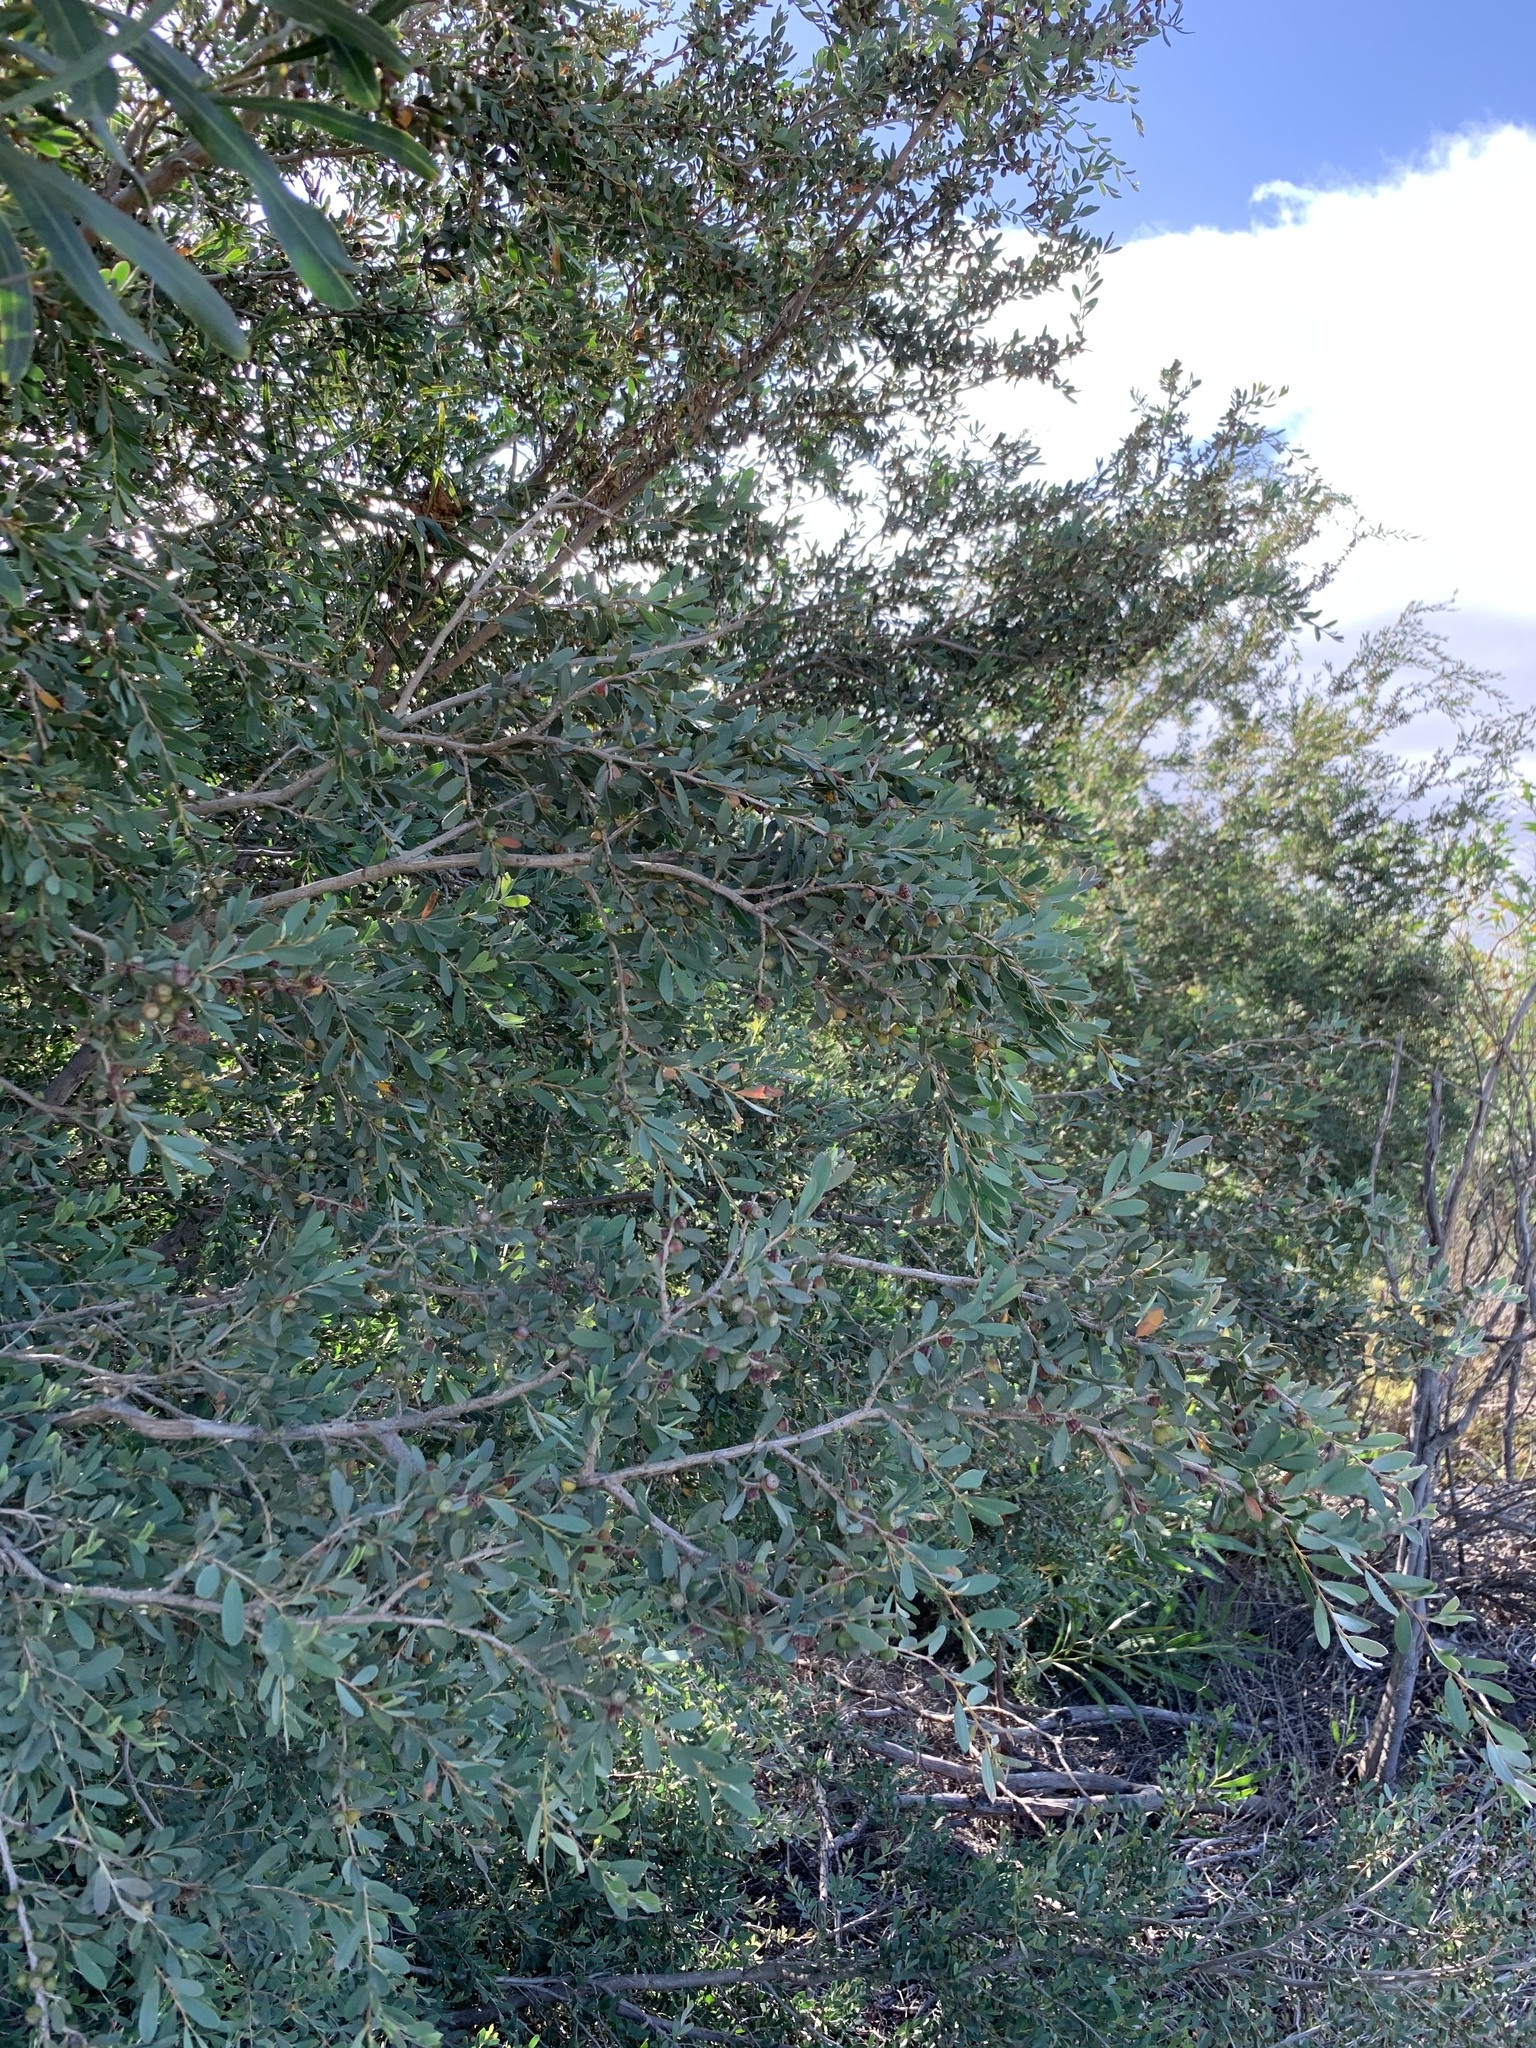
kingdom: Plantae
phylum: Tracheophyta
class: Magnoliopsida
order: Myrtales
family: Myrtaceae
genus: Leptospermum
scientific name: Leptospermum laevigatum
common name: Australian teatree
